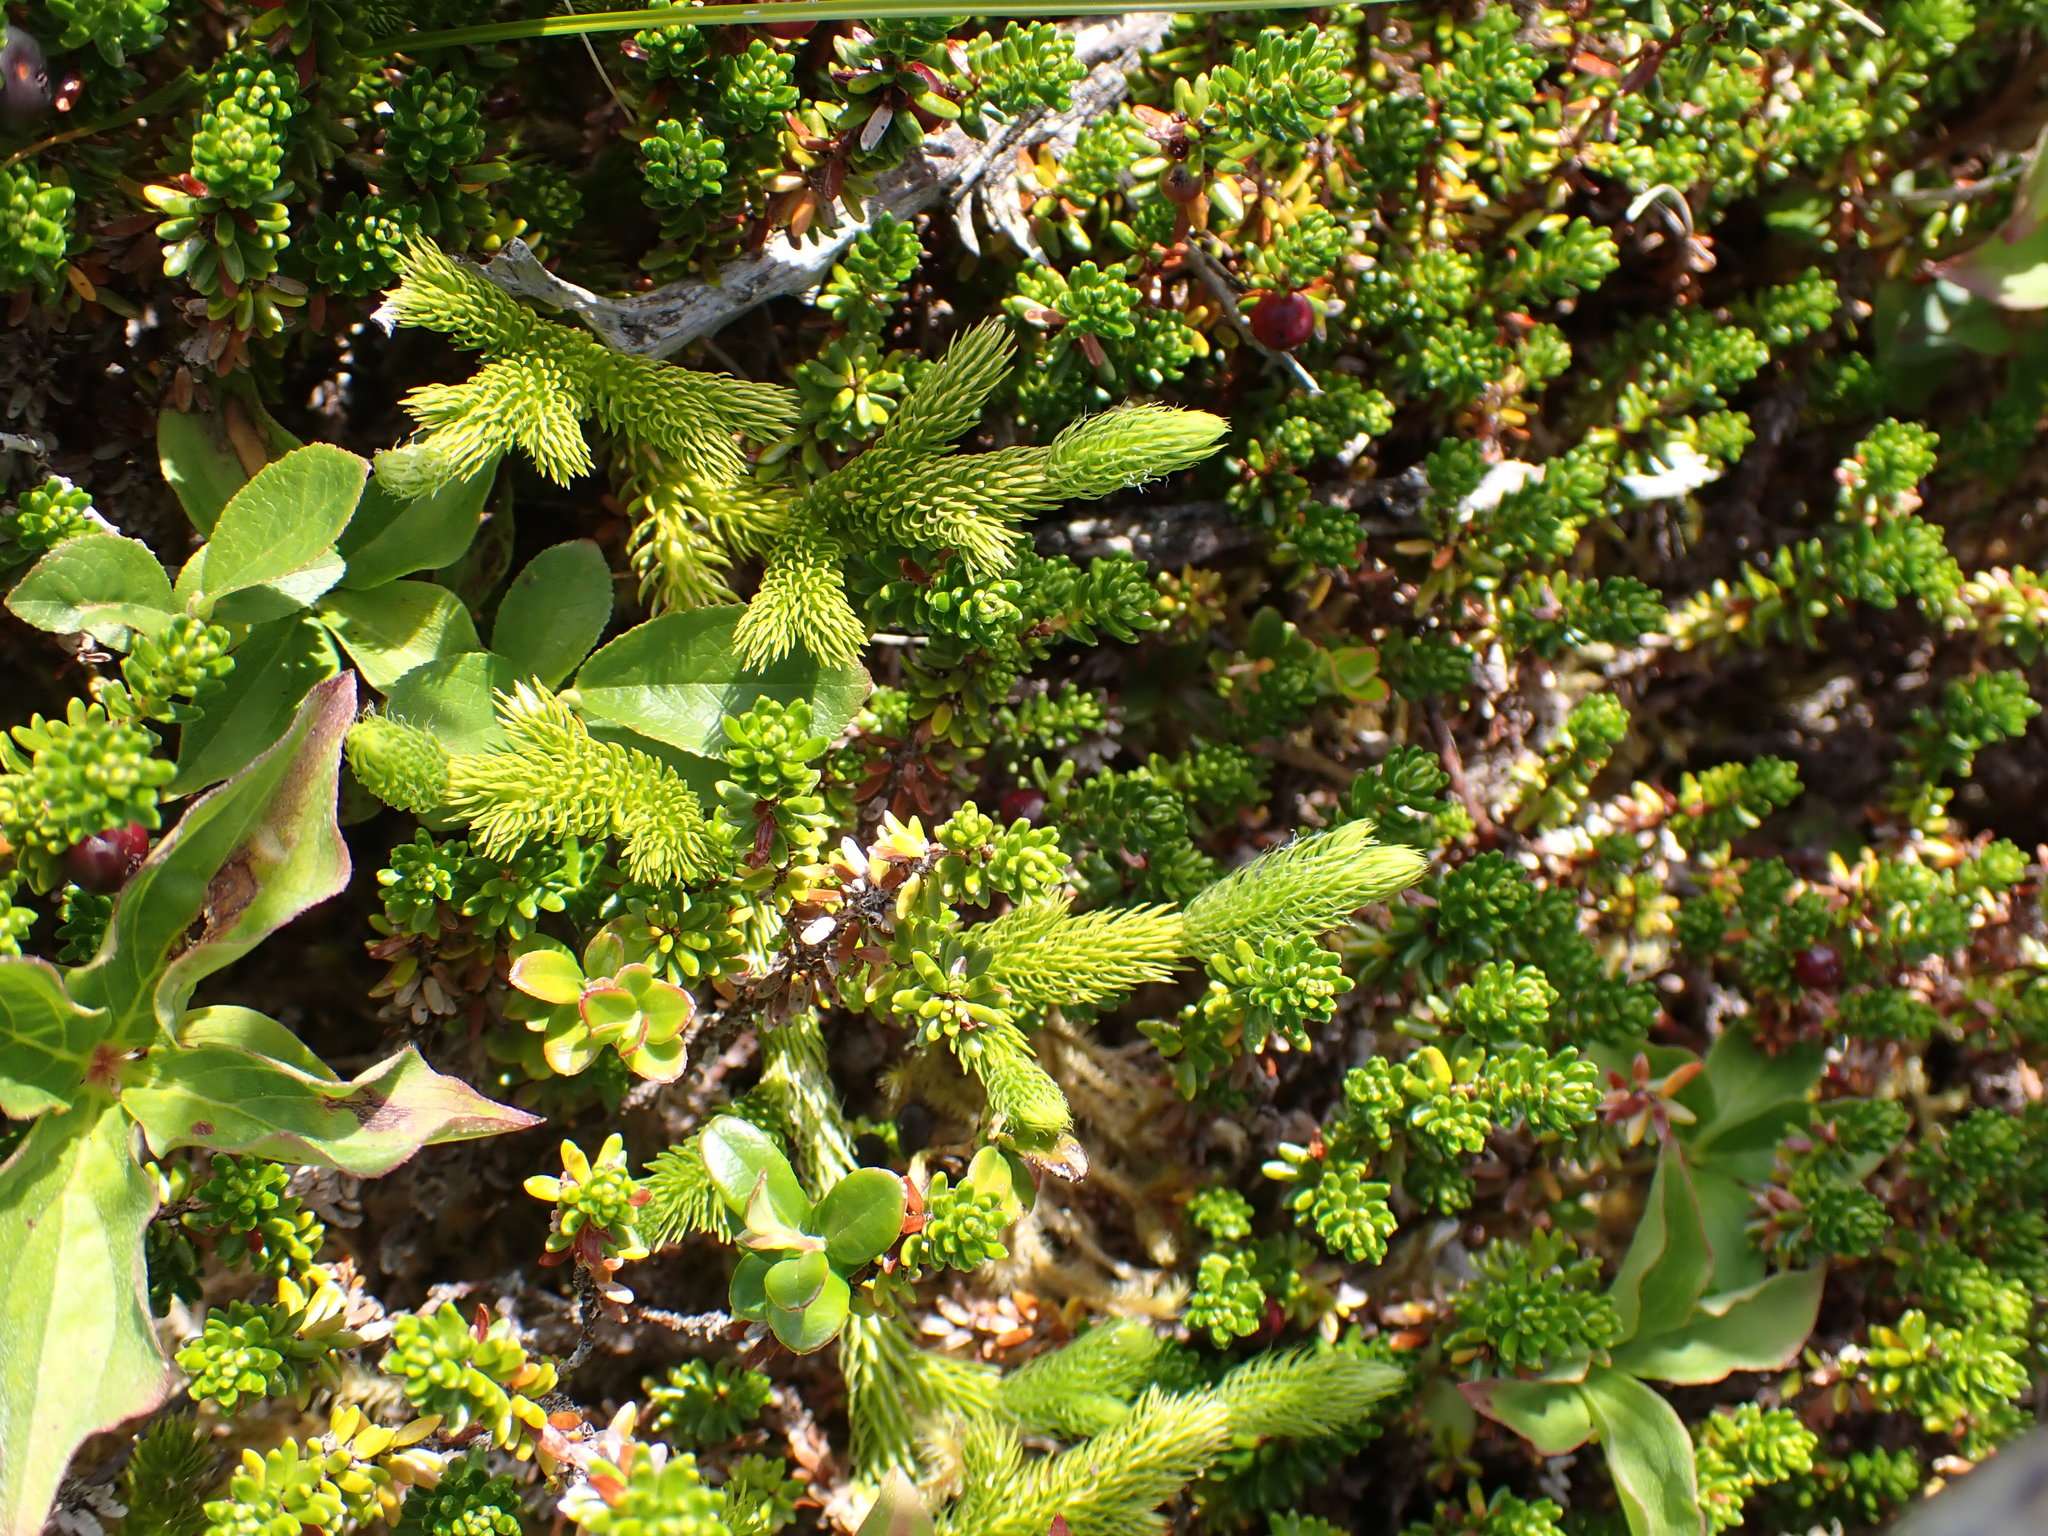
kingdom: Plantae
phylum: Tracheophyta
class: Lycopodiopsida
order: Lycopodiales
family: Lycopodiaceae
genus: Lycopodium
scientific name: Lycopodium clavatum
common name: Stag's-horn clubmoss
